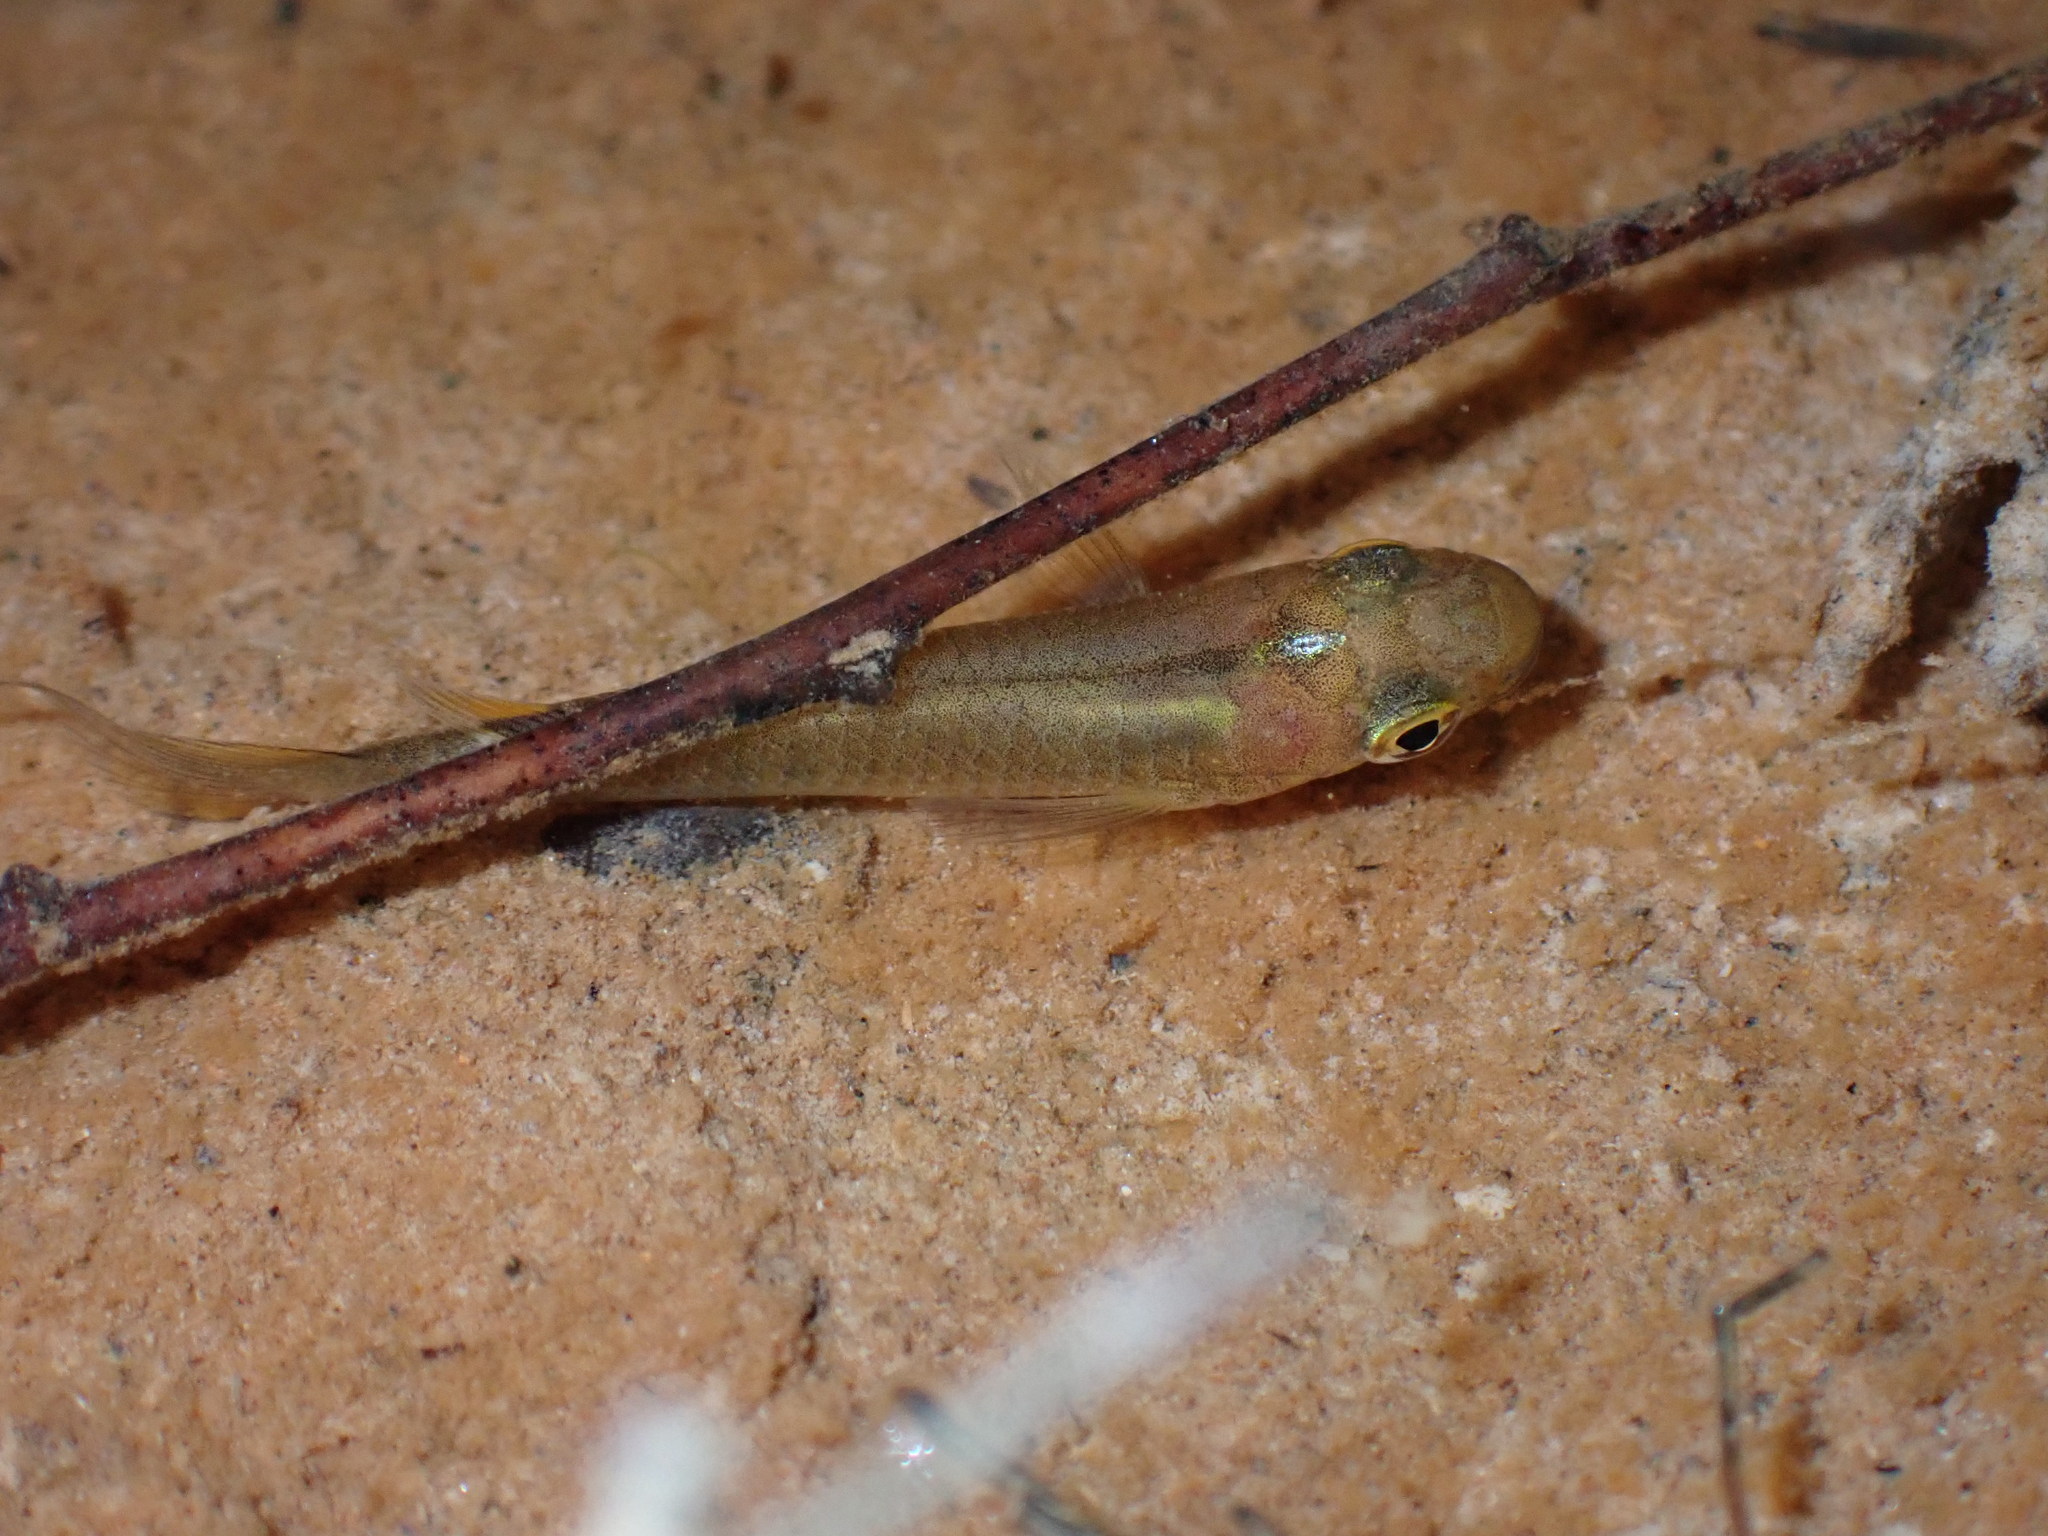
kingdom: Animalia
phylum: Chordata
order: Cyprinodontiformes
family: Aplocheilidae
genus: Aplocheilus
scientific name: Aplocheilus panchax
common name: Blue panchax
